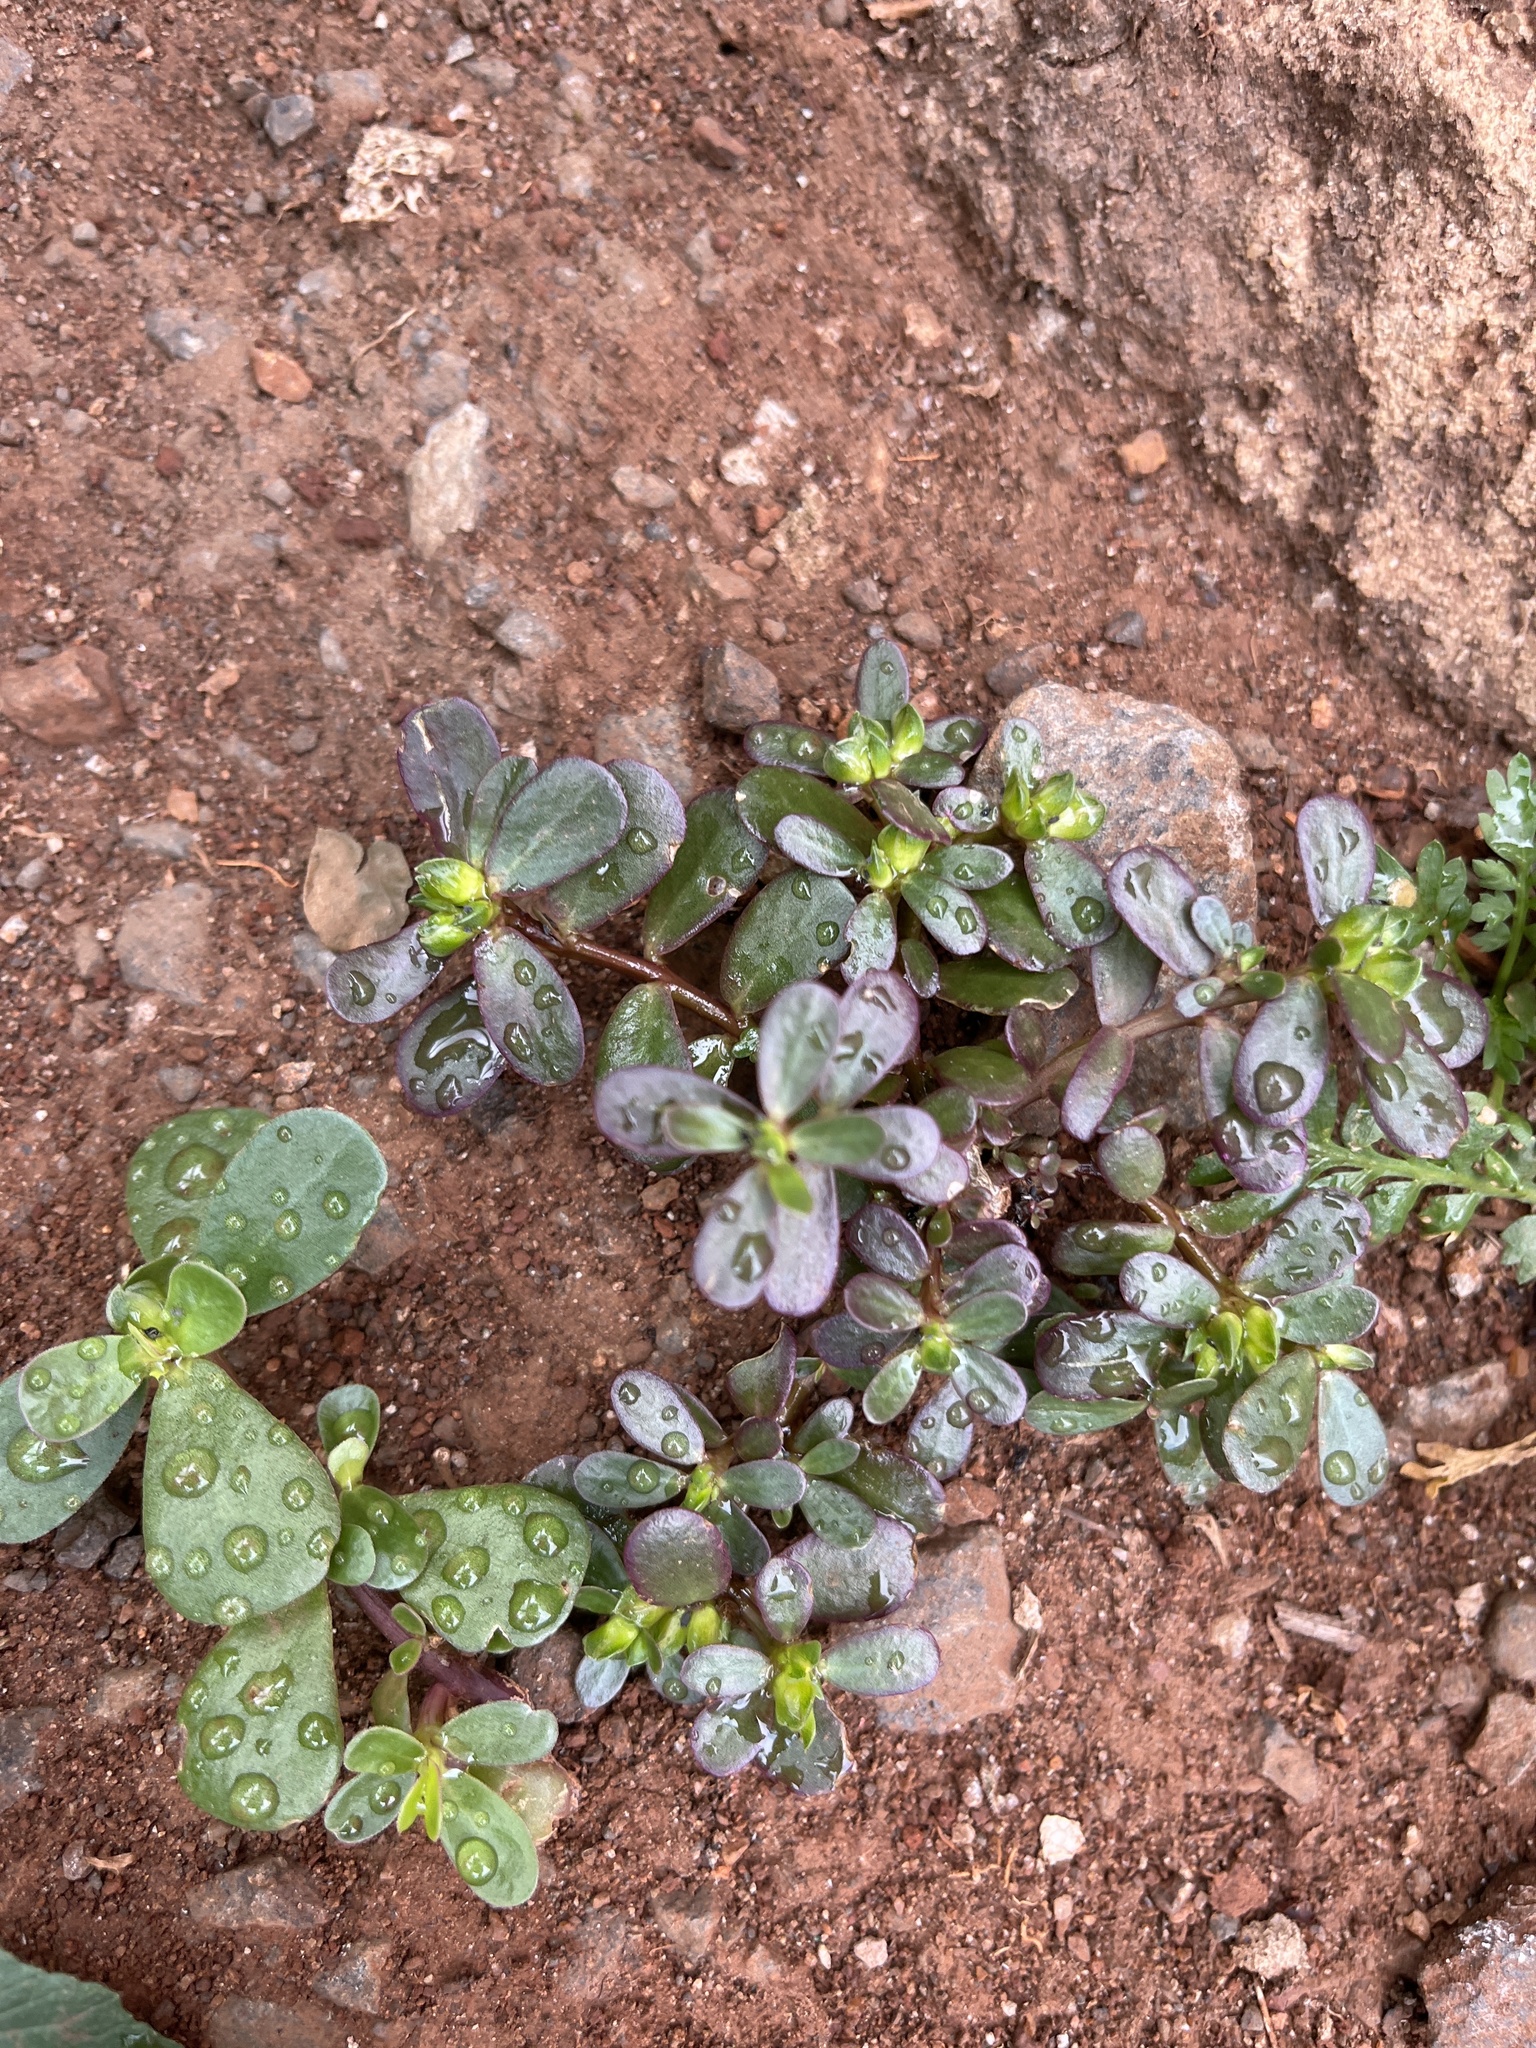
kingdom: Plantae
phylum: Tracheophyta
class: Magnoliopsida
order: Caryophyllales
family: Portulacaceae
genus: Portulaca
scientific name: Portulaca oleracea
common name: Common purslane
